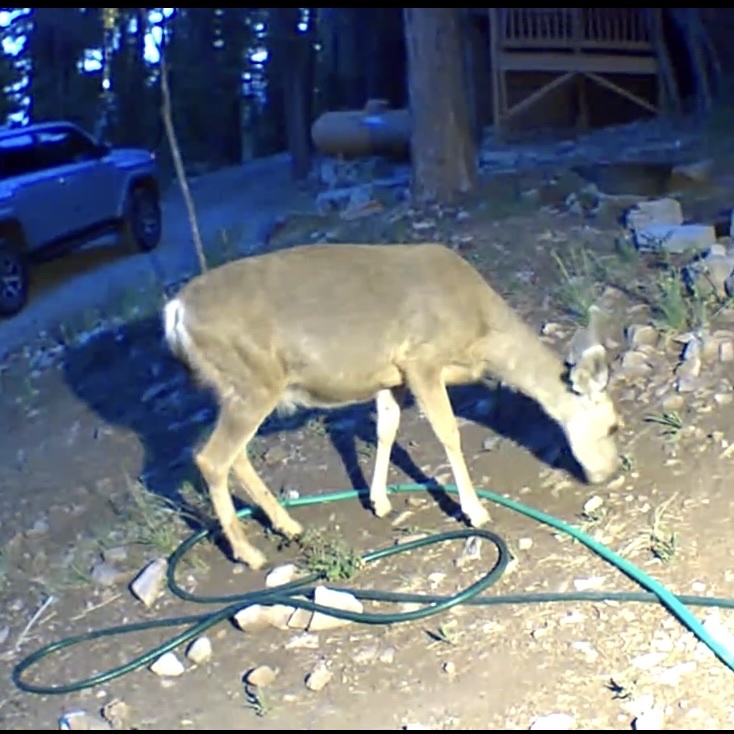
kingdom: Animalia
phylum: Chordata
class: Mammalia
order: Artiodactyla
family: Cervidae
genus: Odocoileus
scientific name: Odocoileus hemionus
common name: Mule deer
